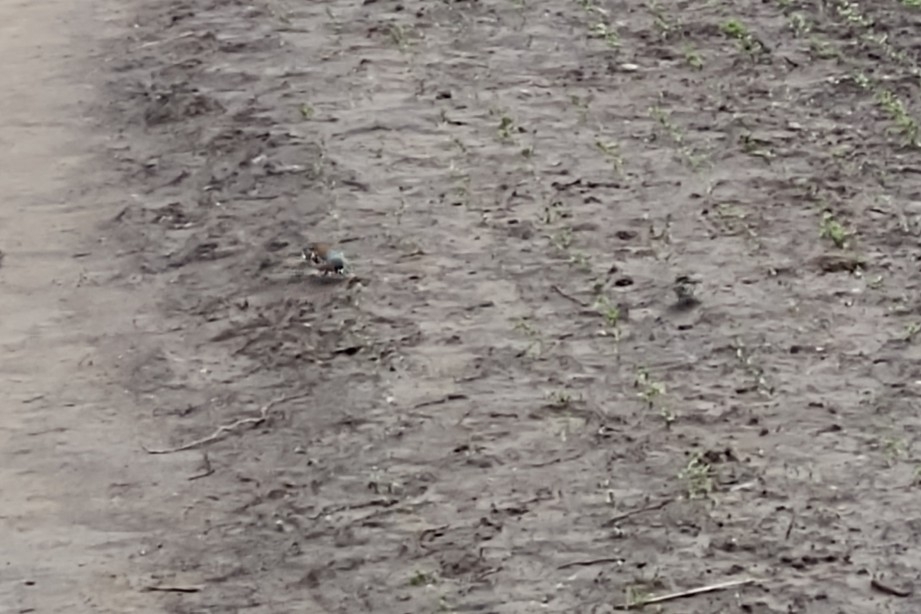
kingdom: Animalia
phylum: Chordata
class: Aves
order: Passeriformes
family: Fringillidae
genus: Fringilla
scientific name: Fringilla coelebs
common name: Common chaffinch
